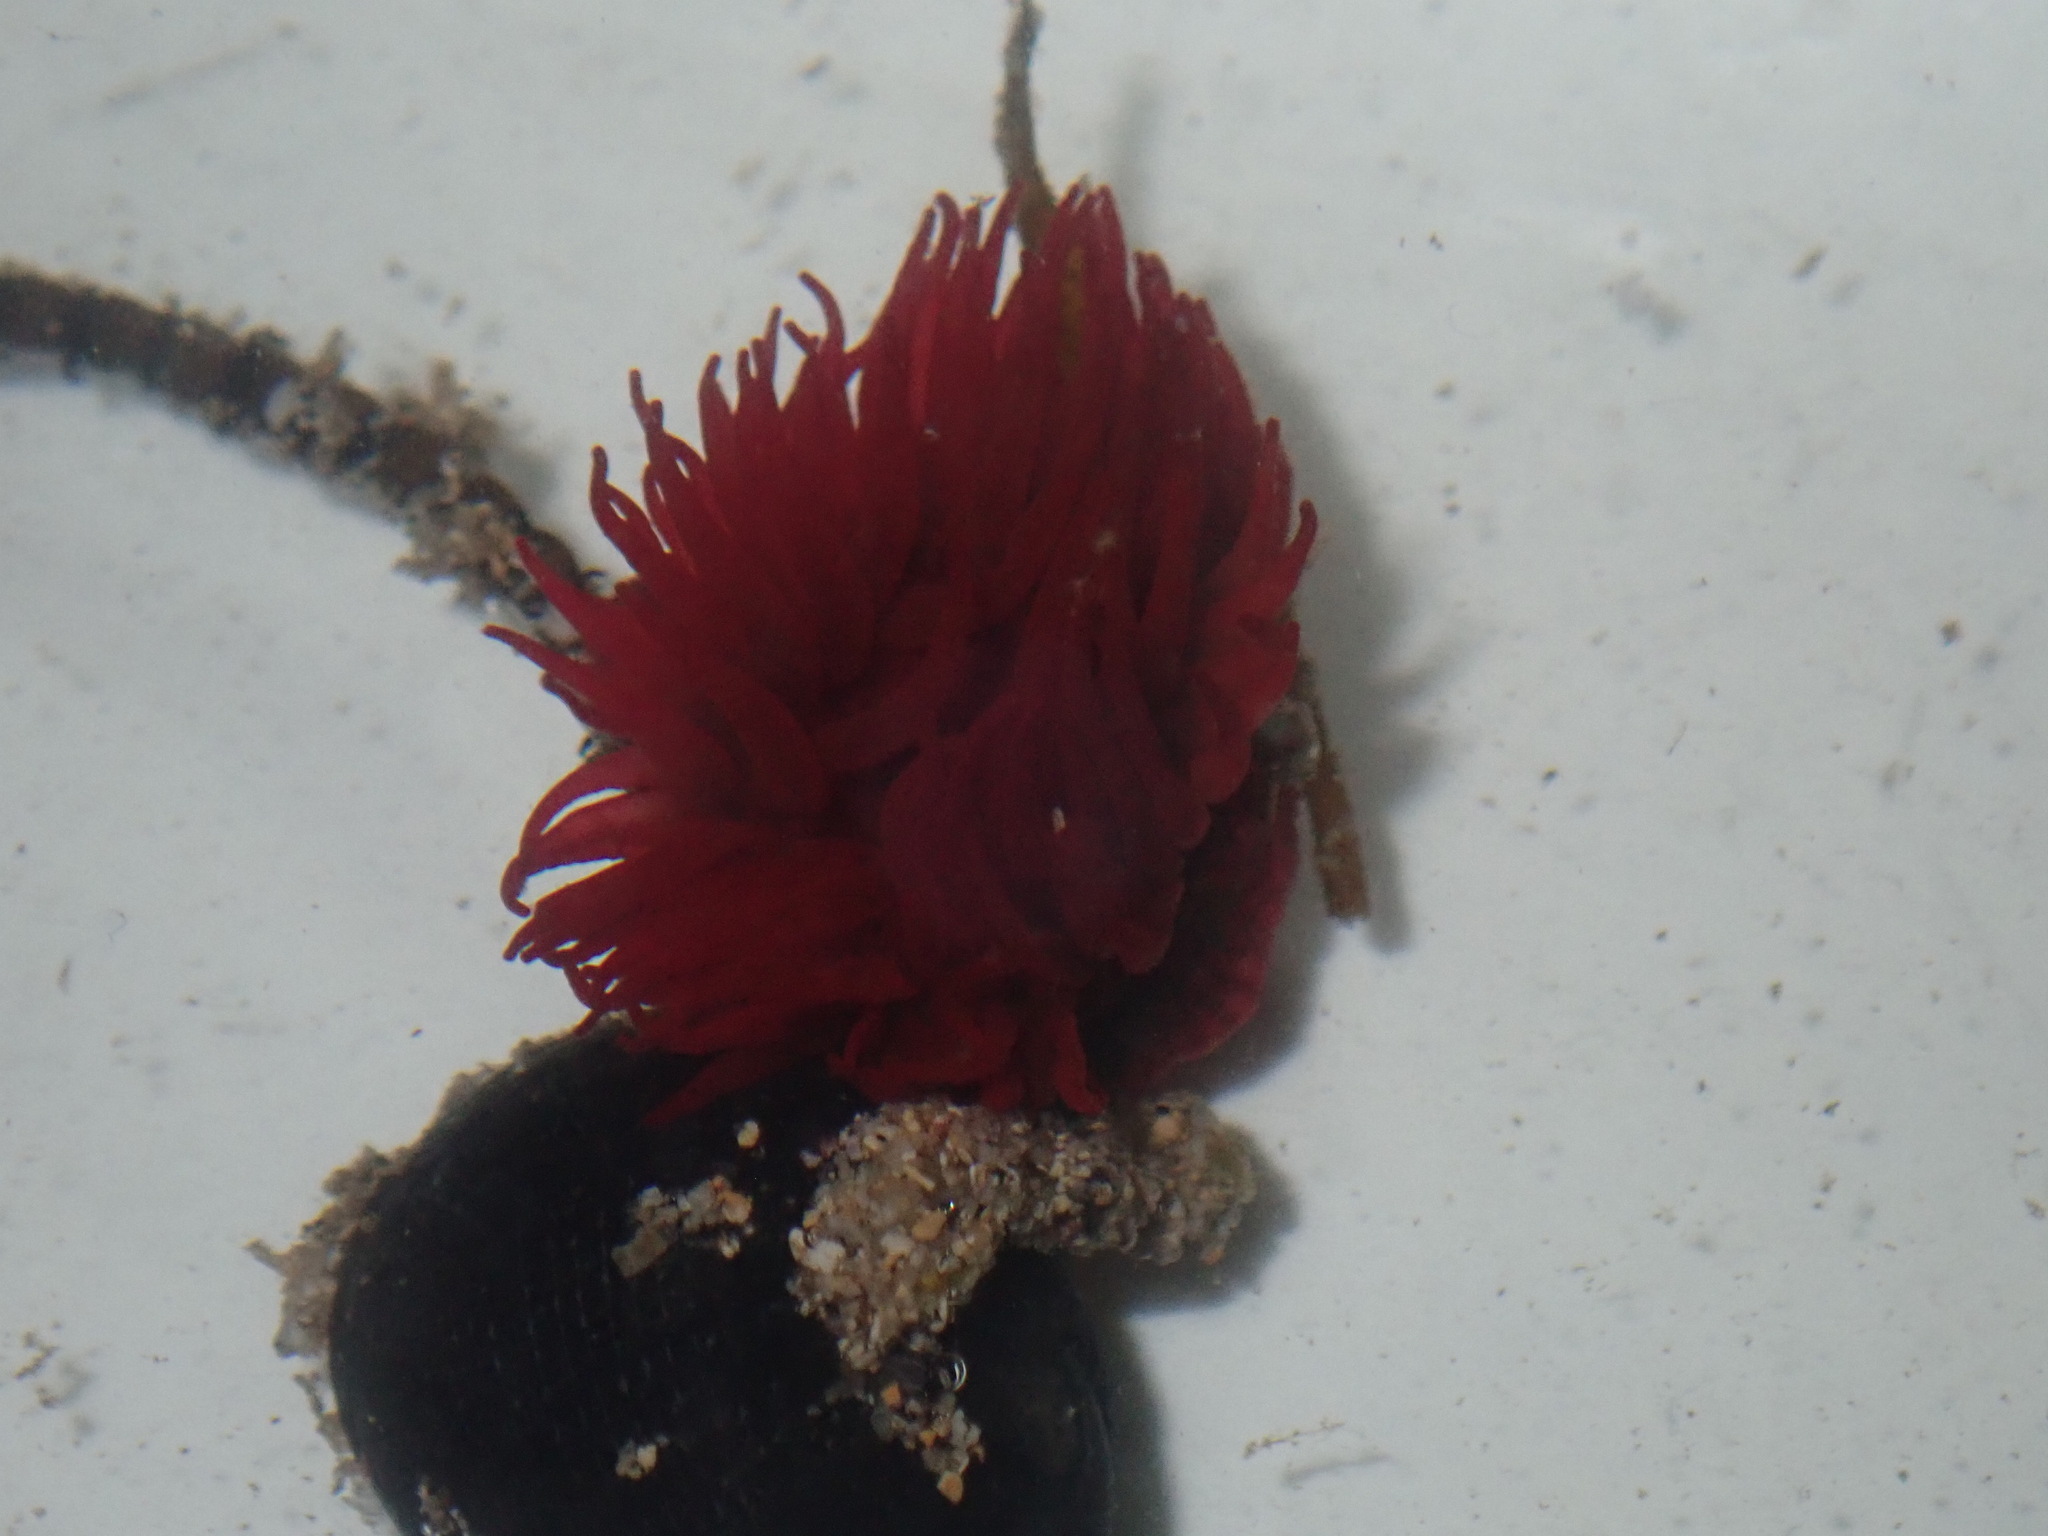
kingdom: Animalia
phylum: Cnidaria
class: Anthozoa
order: Actiniaria
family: Actiniidae
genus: Actinia
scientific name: Actinia tenebrosa
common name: Waratah anemone
